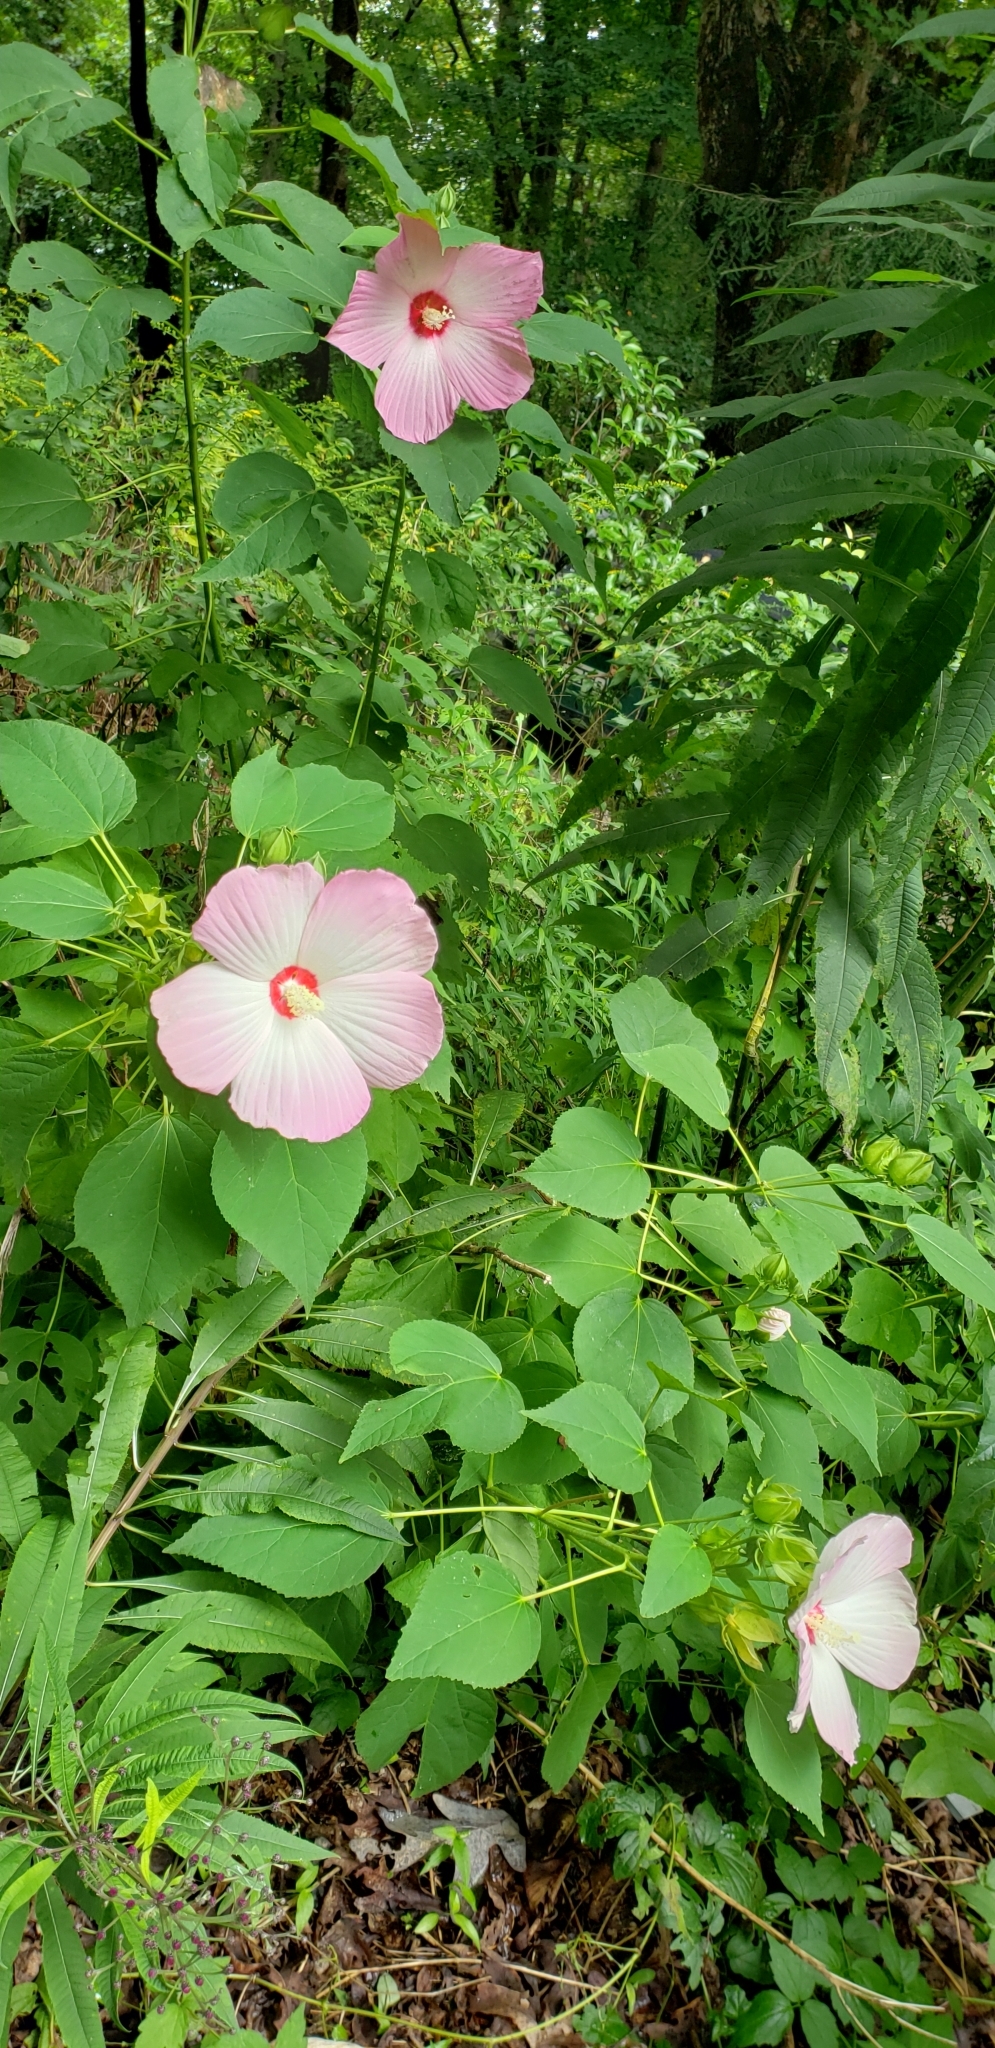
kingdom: Plantae
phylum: Tracheophyta
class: Magnoliopsida
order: Malvales
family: Malvaceae
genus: Hibiscus
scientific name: Hibiscus moscheutos
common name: Common rose-mallow
